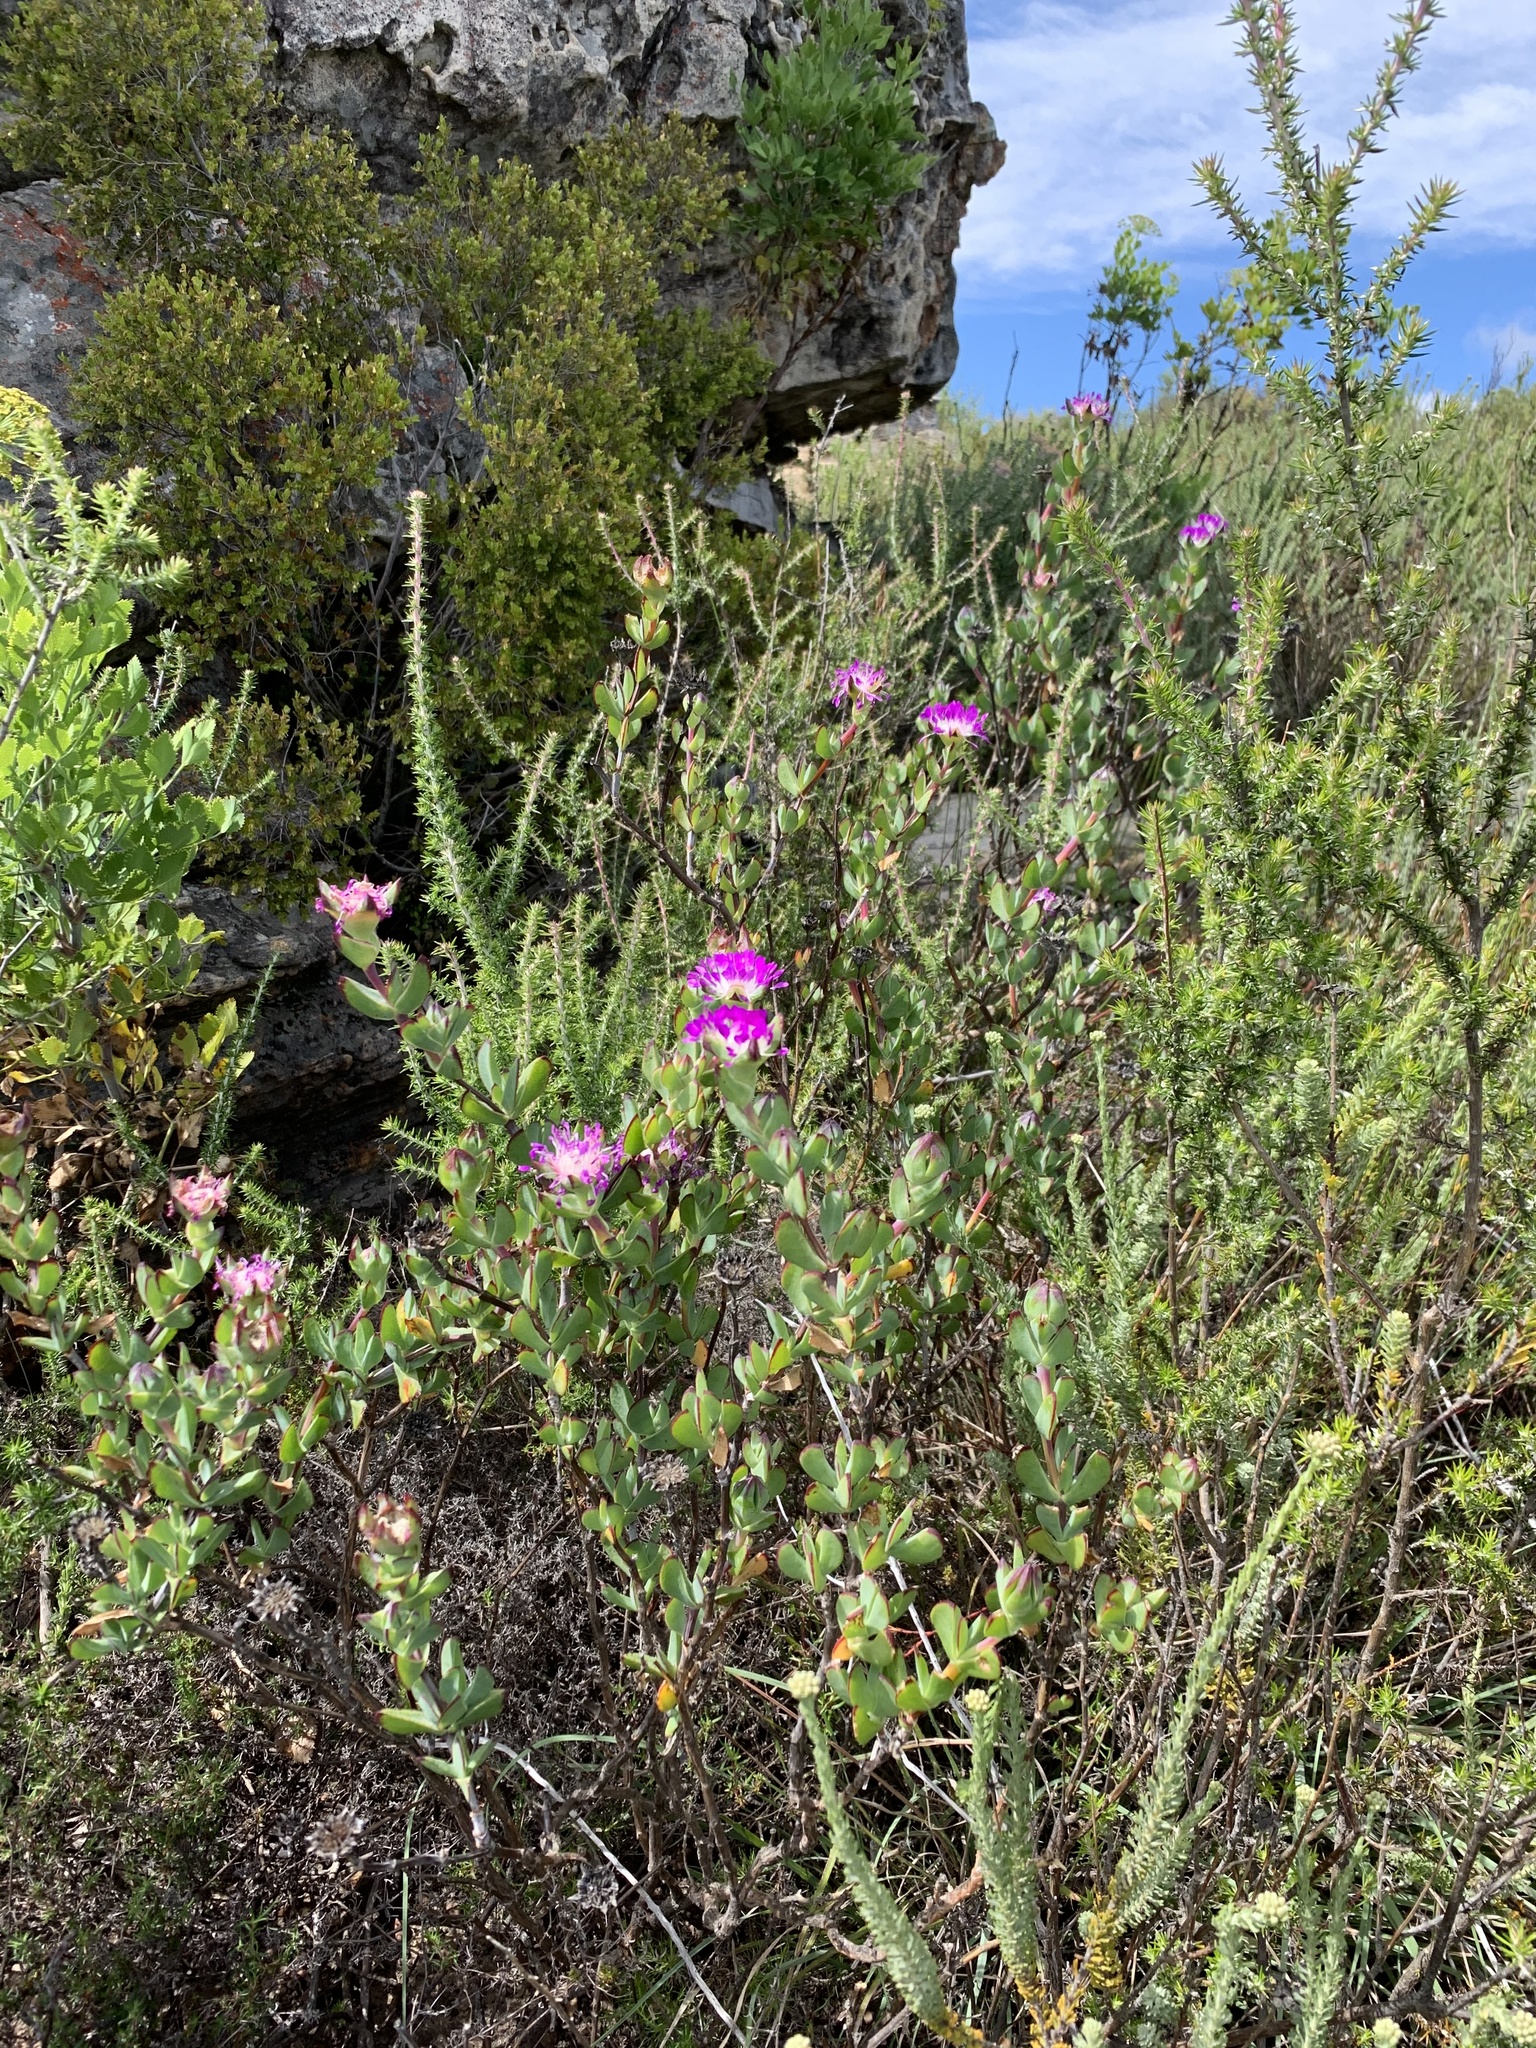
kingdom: Plantae
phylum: Tracheophyta
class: Magnoliopsida
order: Caryophyllales
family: Aizoaceae
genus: Erepsia
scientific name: Erepsia pillansii
